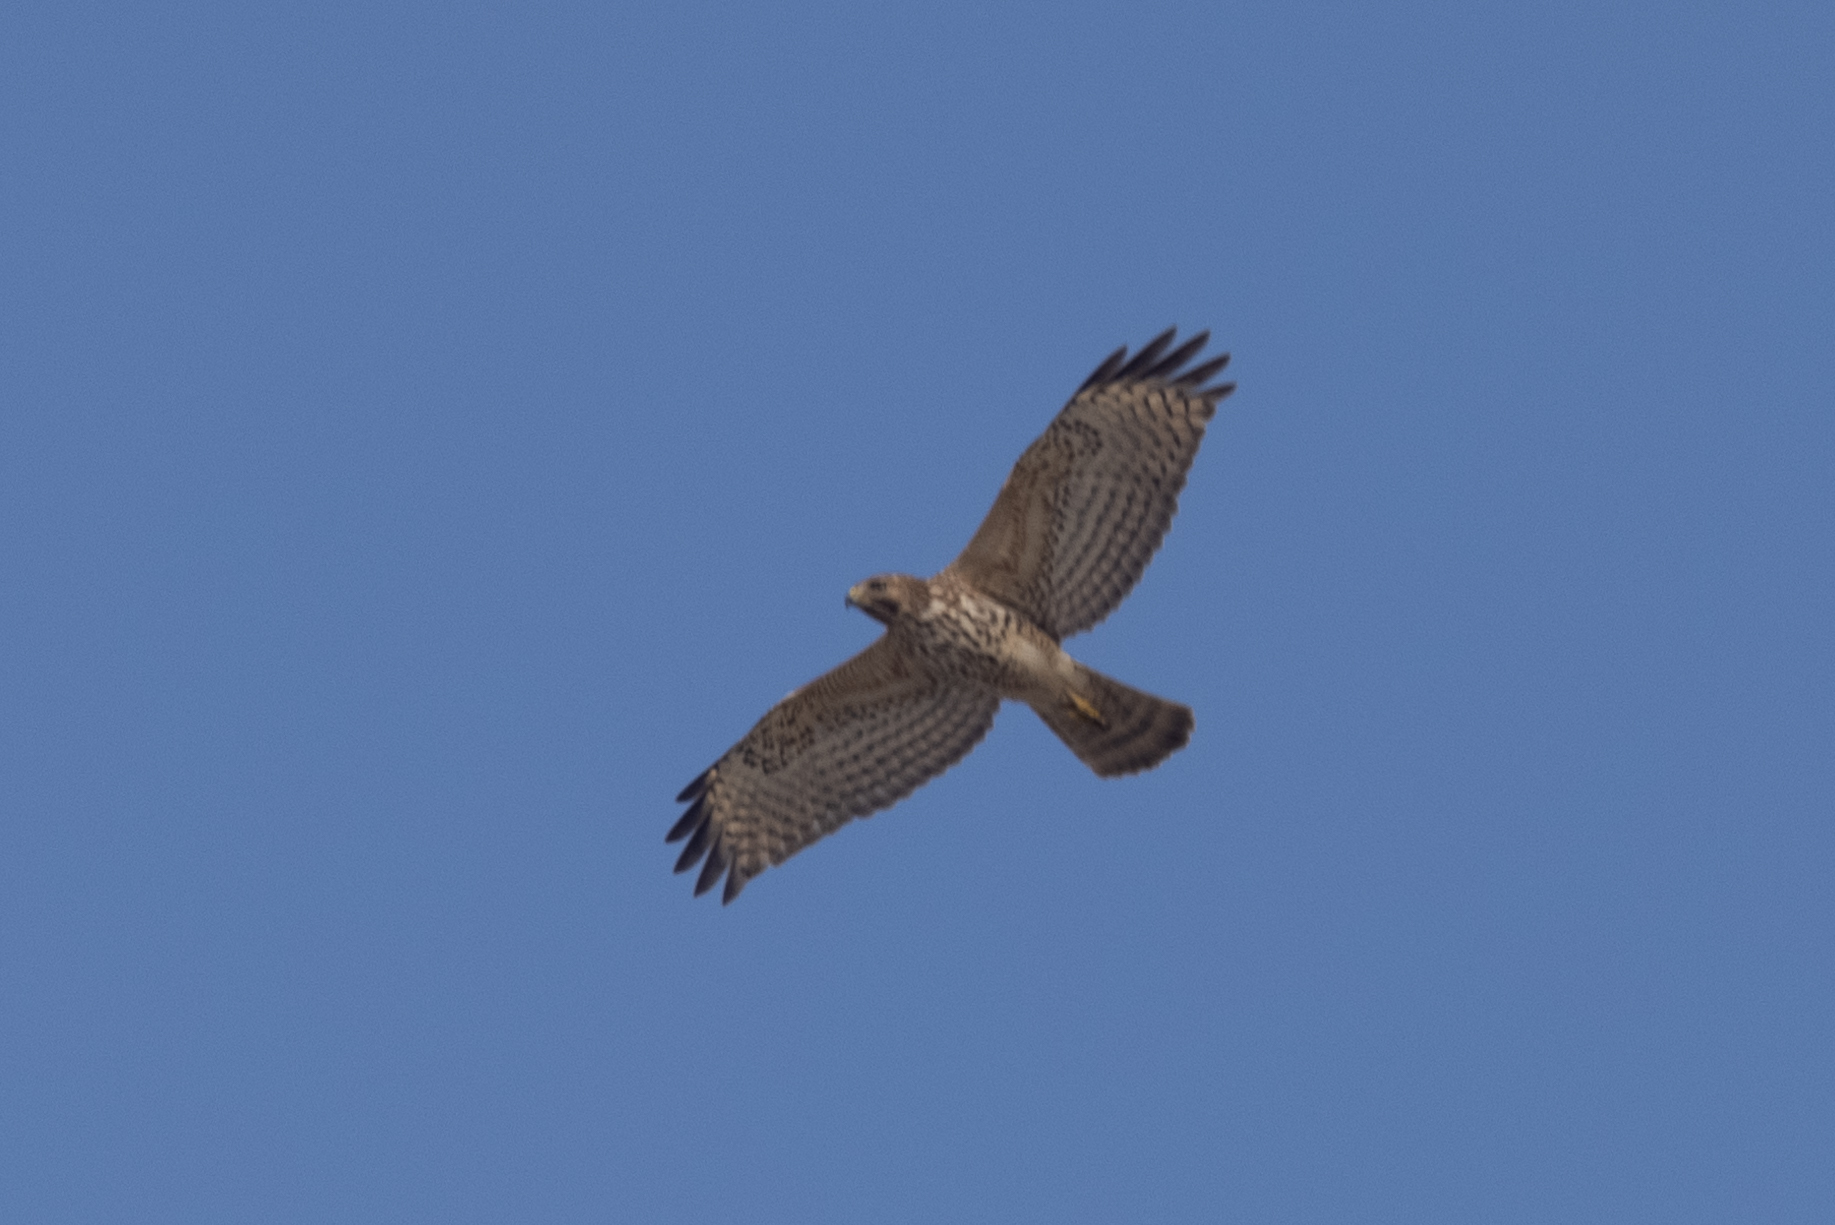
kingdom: Animalia
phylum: Chordata
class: Aves
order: Accipitriformes
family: Accipitridae
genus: Buteo
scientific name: Buteo lineatus
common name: Red-shouldered hawk
